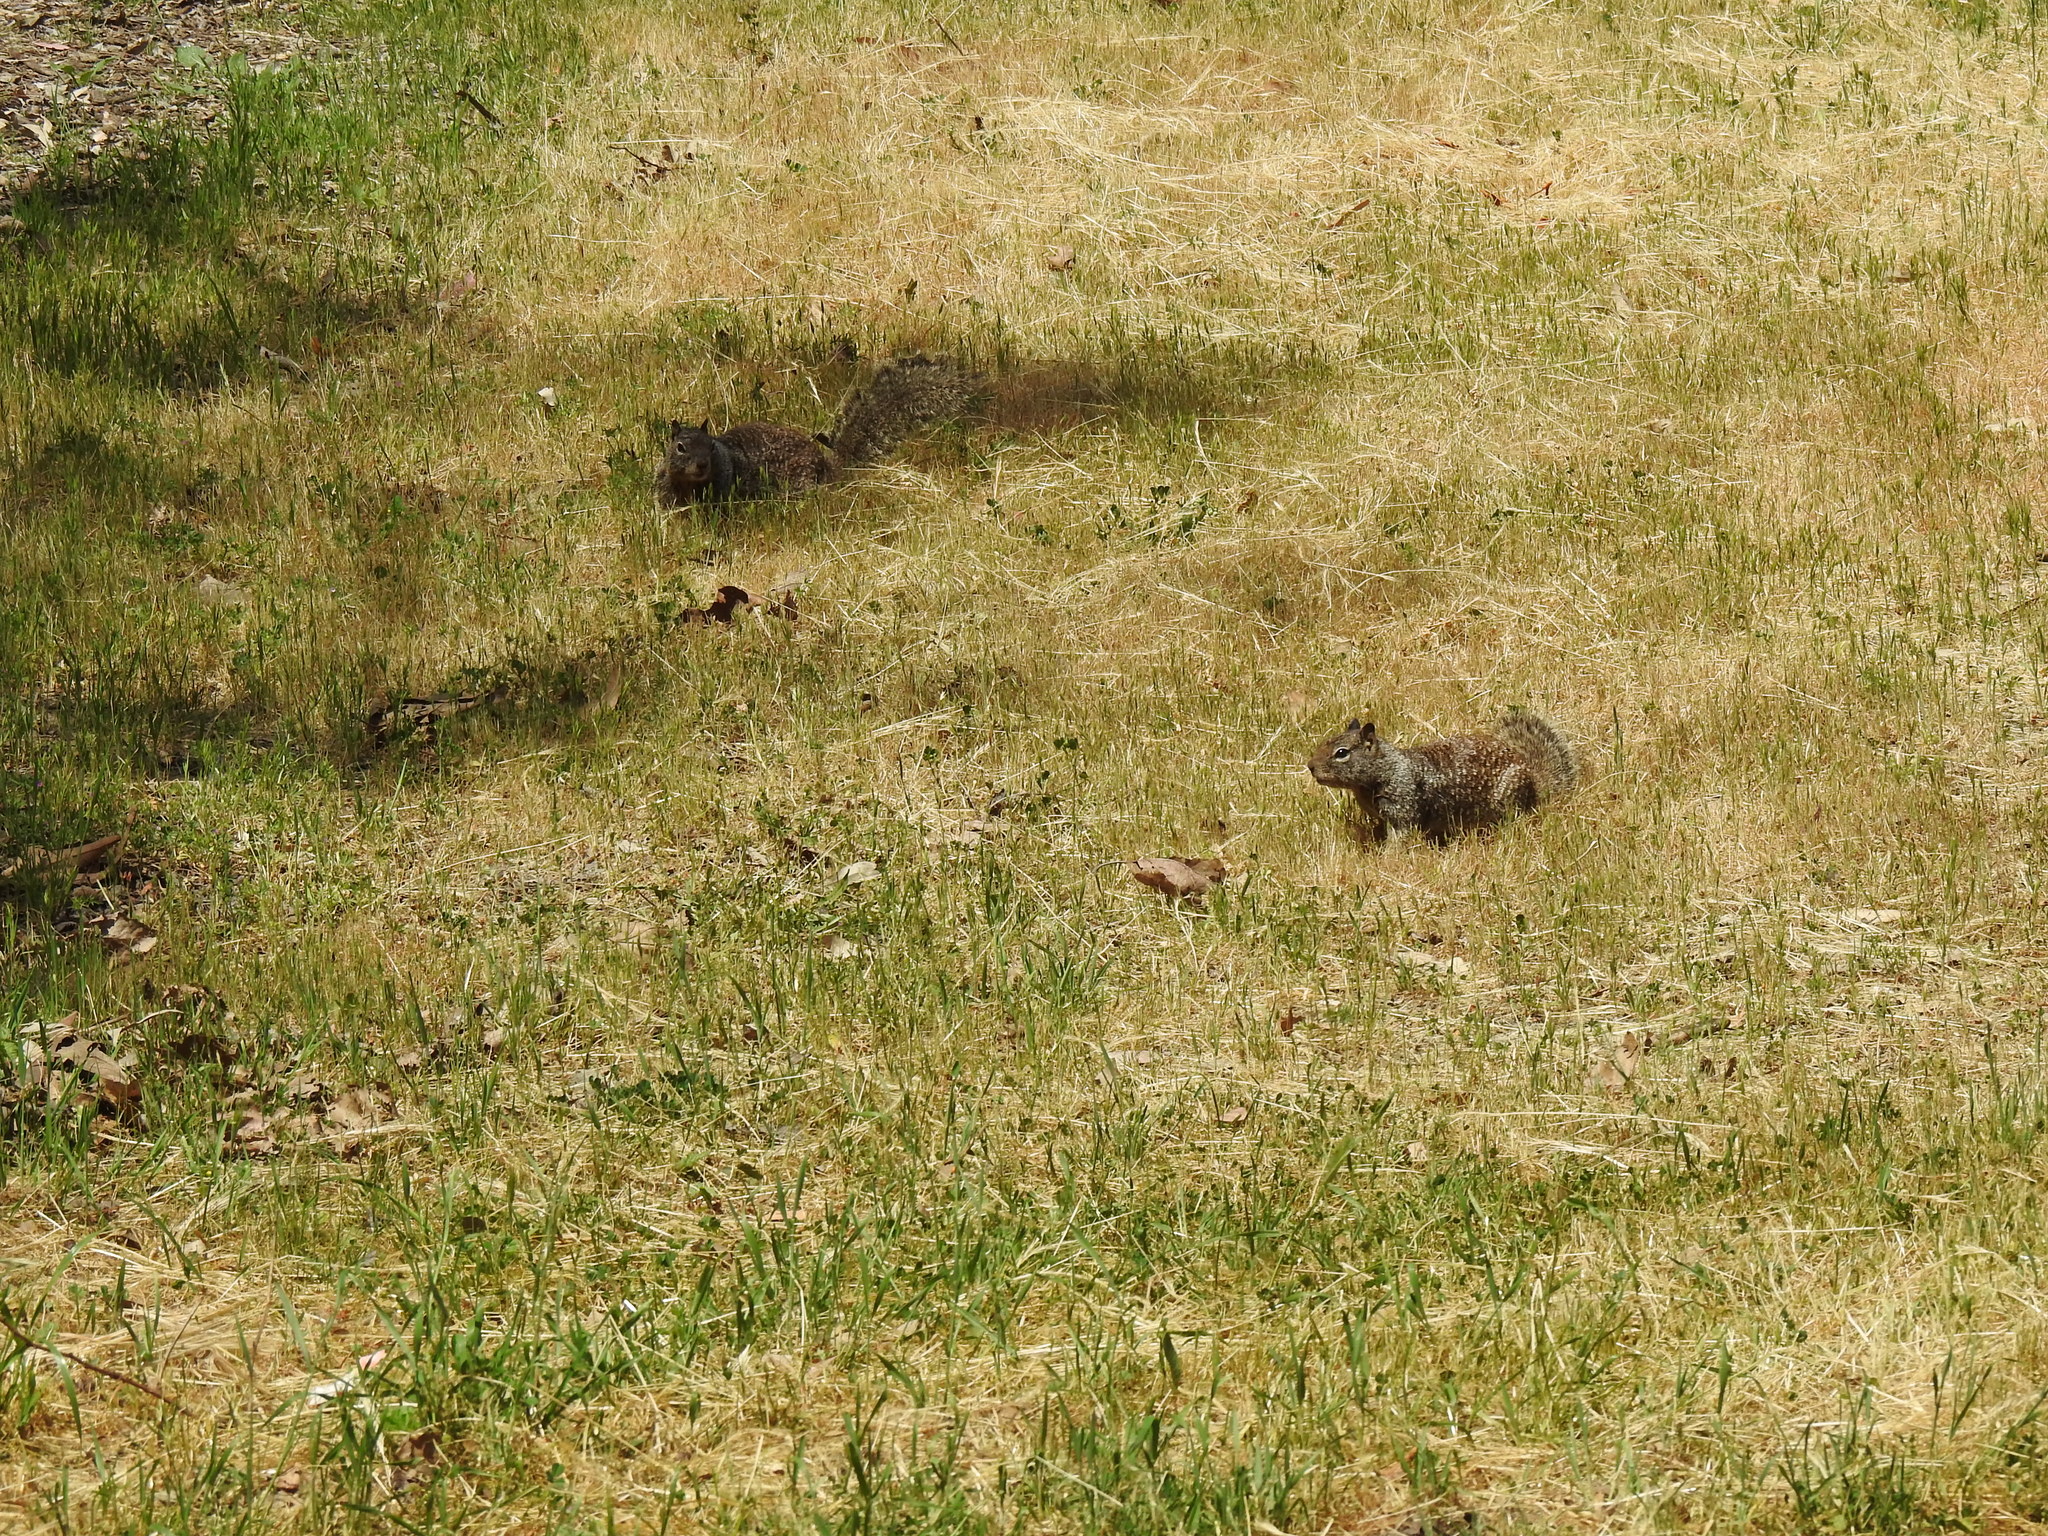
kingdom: Animalia
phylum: Chordata
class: Mammalia
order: Rodentia
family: Sciuridae
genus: Otospermophilus
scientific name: Otospermophilus beecheyi
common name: California ground squirrel
